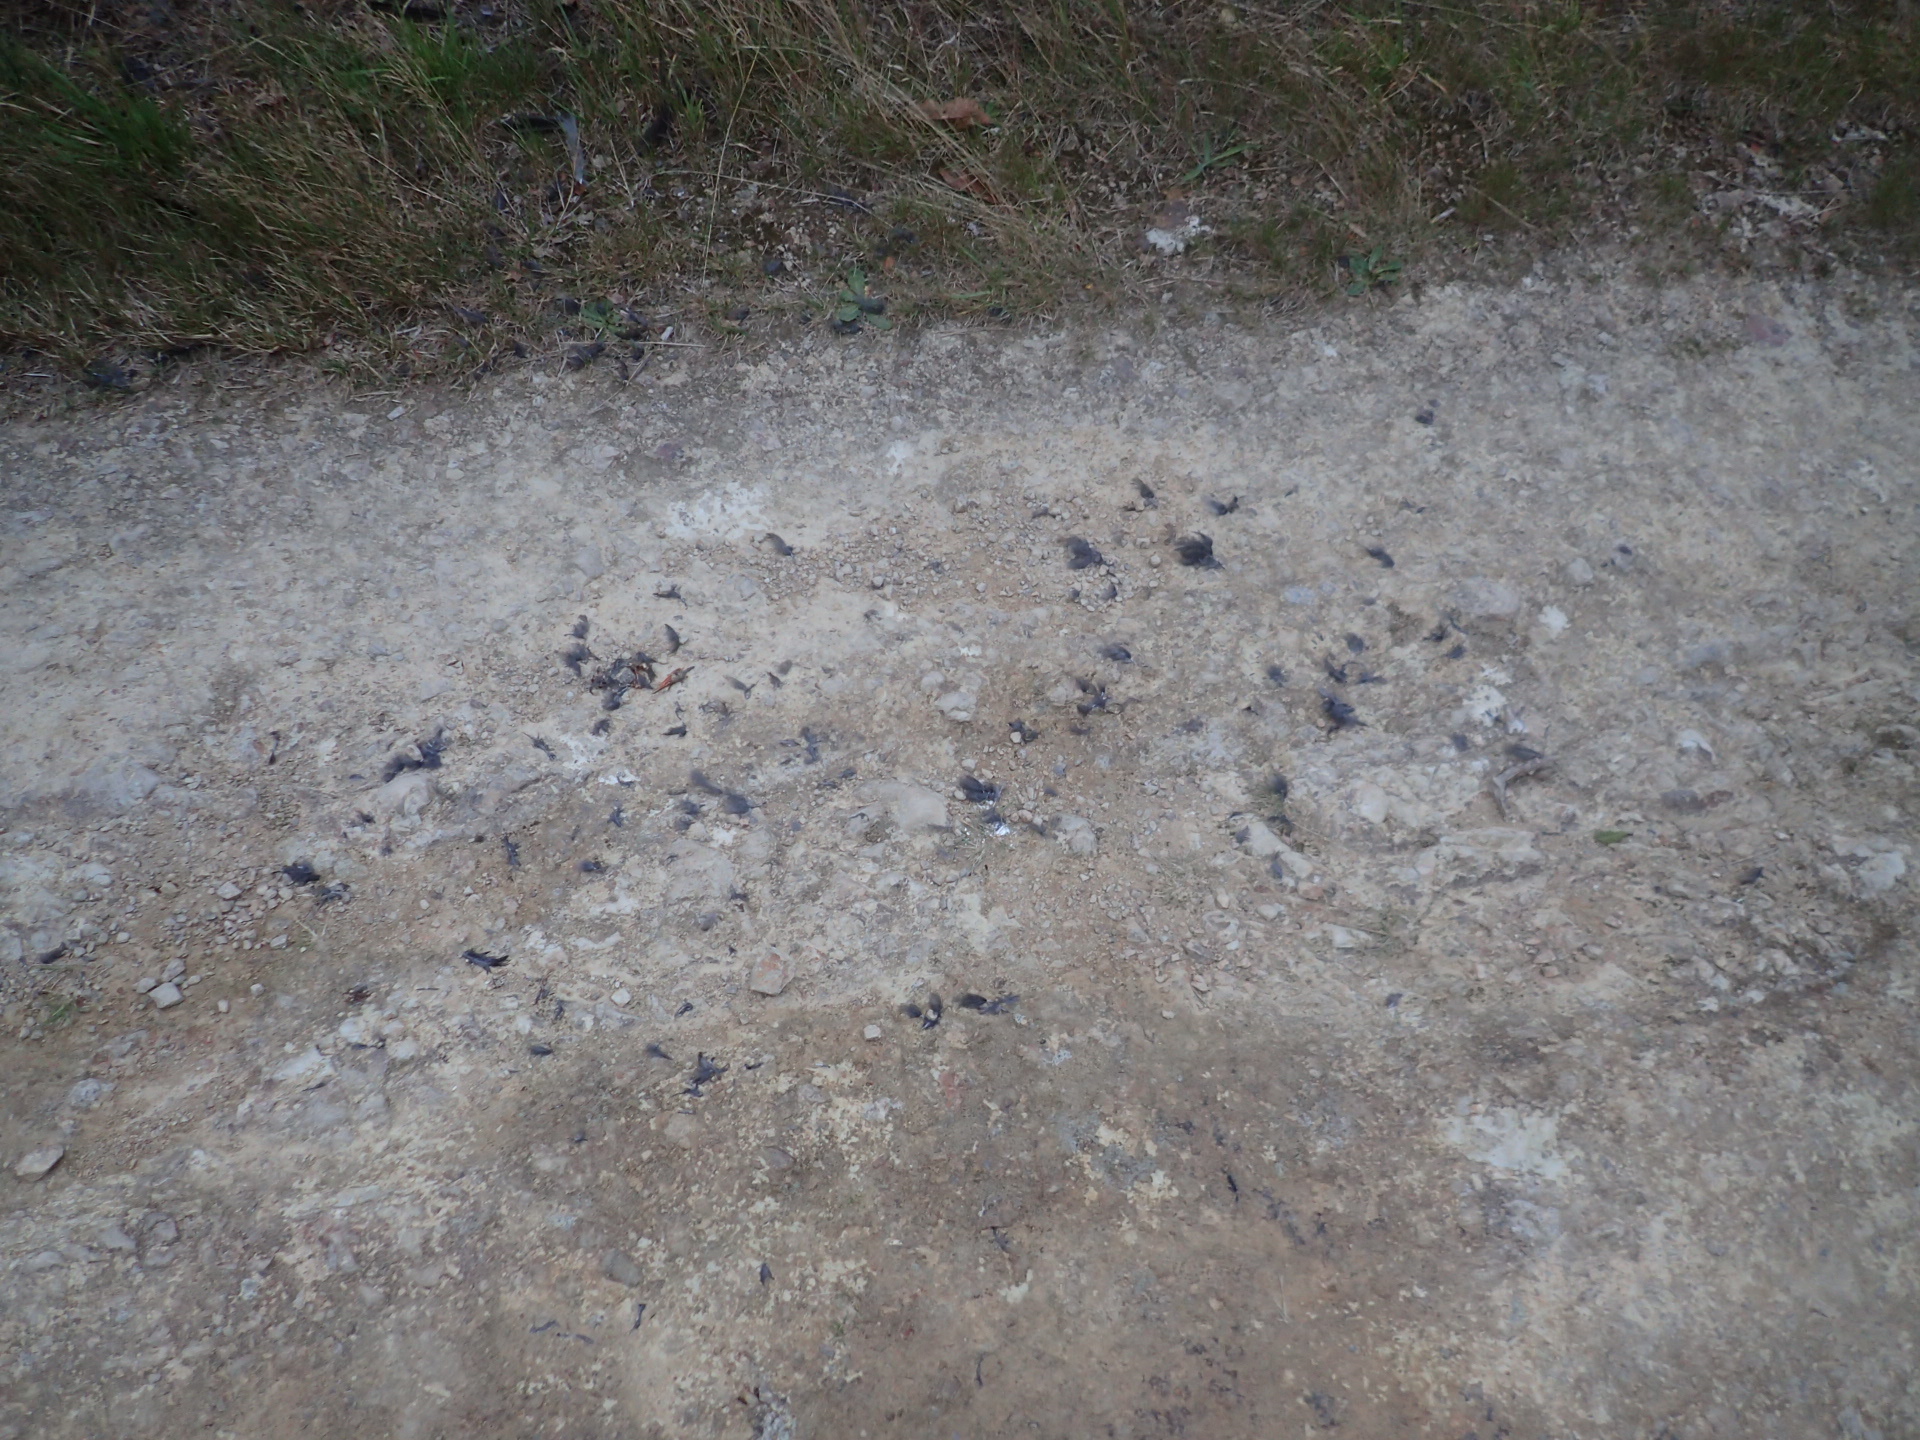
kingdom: Animalia
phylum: Chordata
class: Aves
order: Falconiformes
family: Falconidae
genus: Falco
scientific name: Falco novaeseelandiae
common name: New zealand falcon
